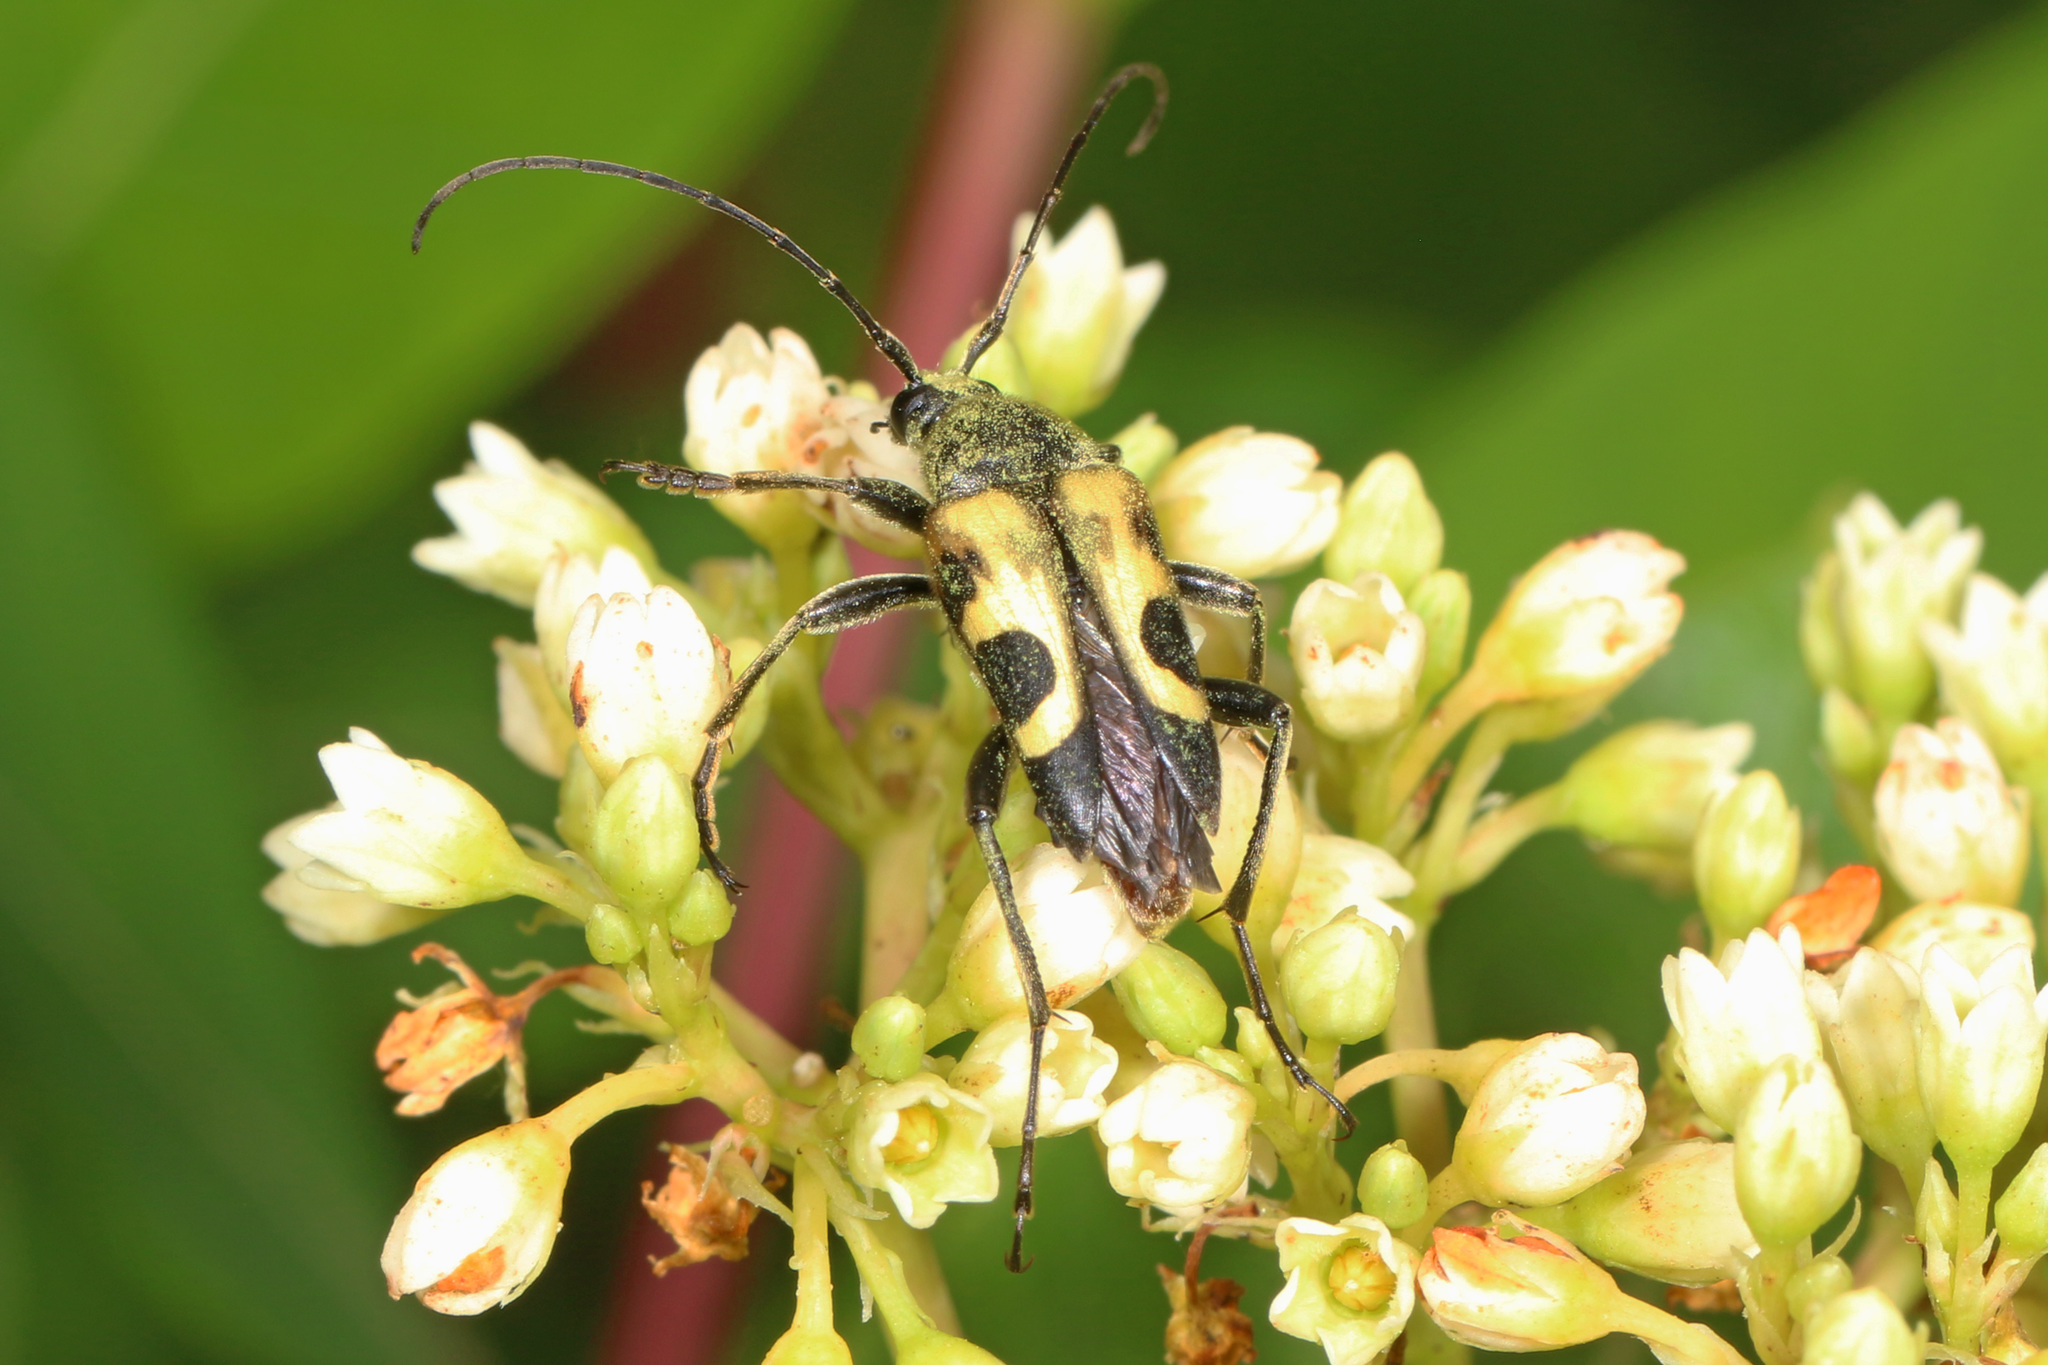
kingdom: Animalia
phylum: Arthropoda
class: Insecta
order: Coleoptera
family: Cerambycidae
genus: Judolia
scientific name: Judolia cordifera
